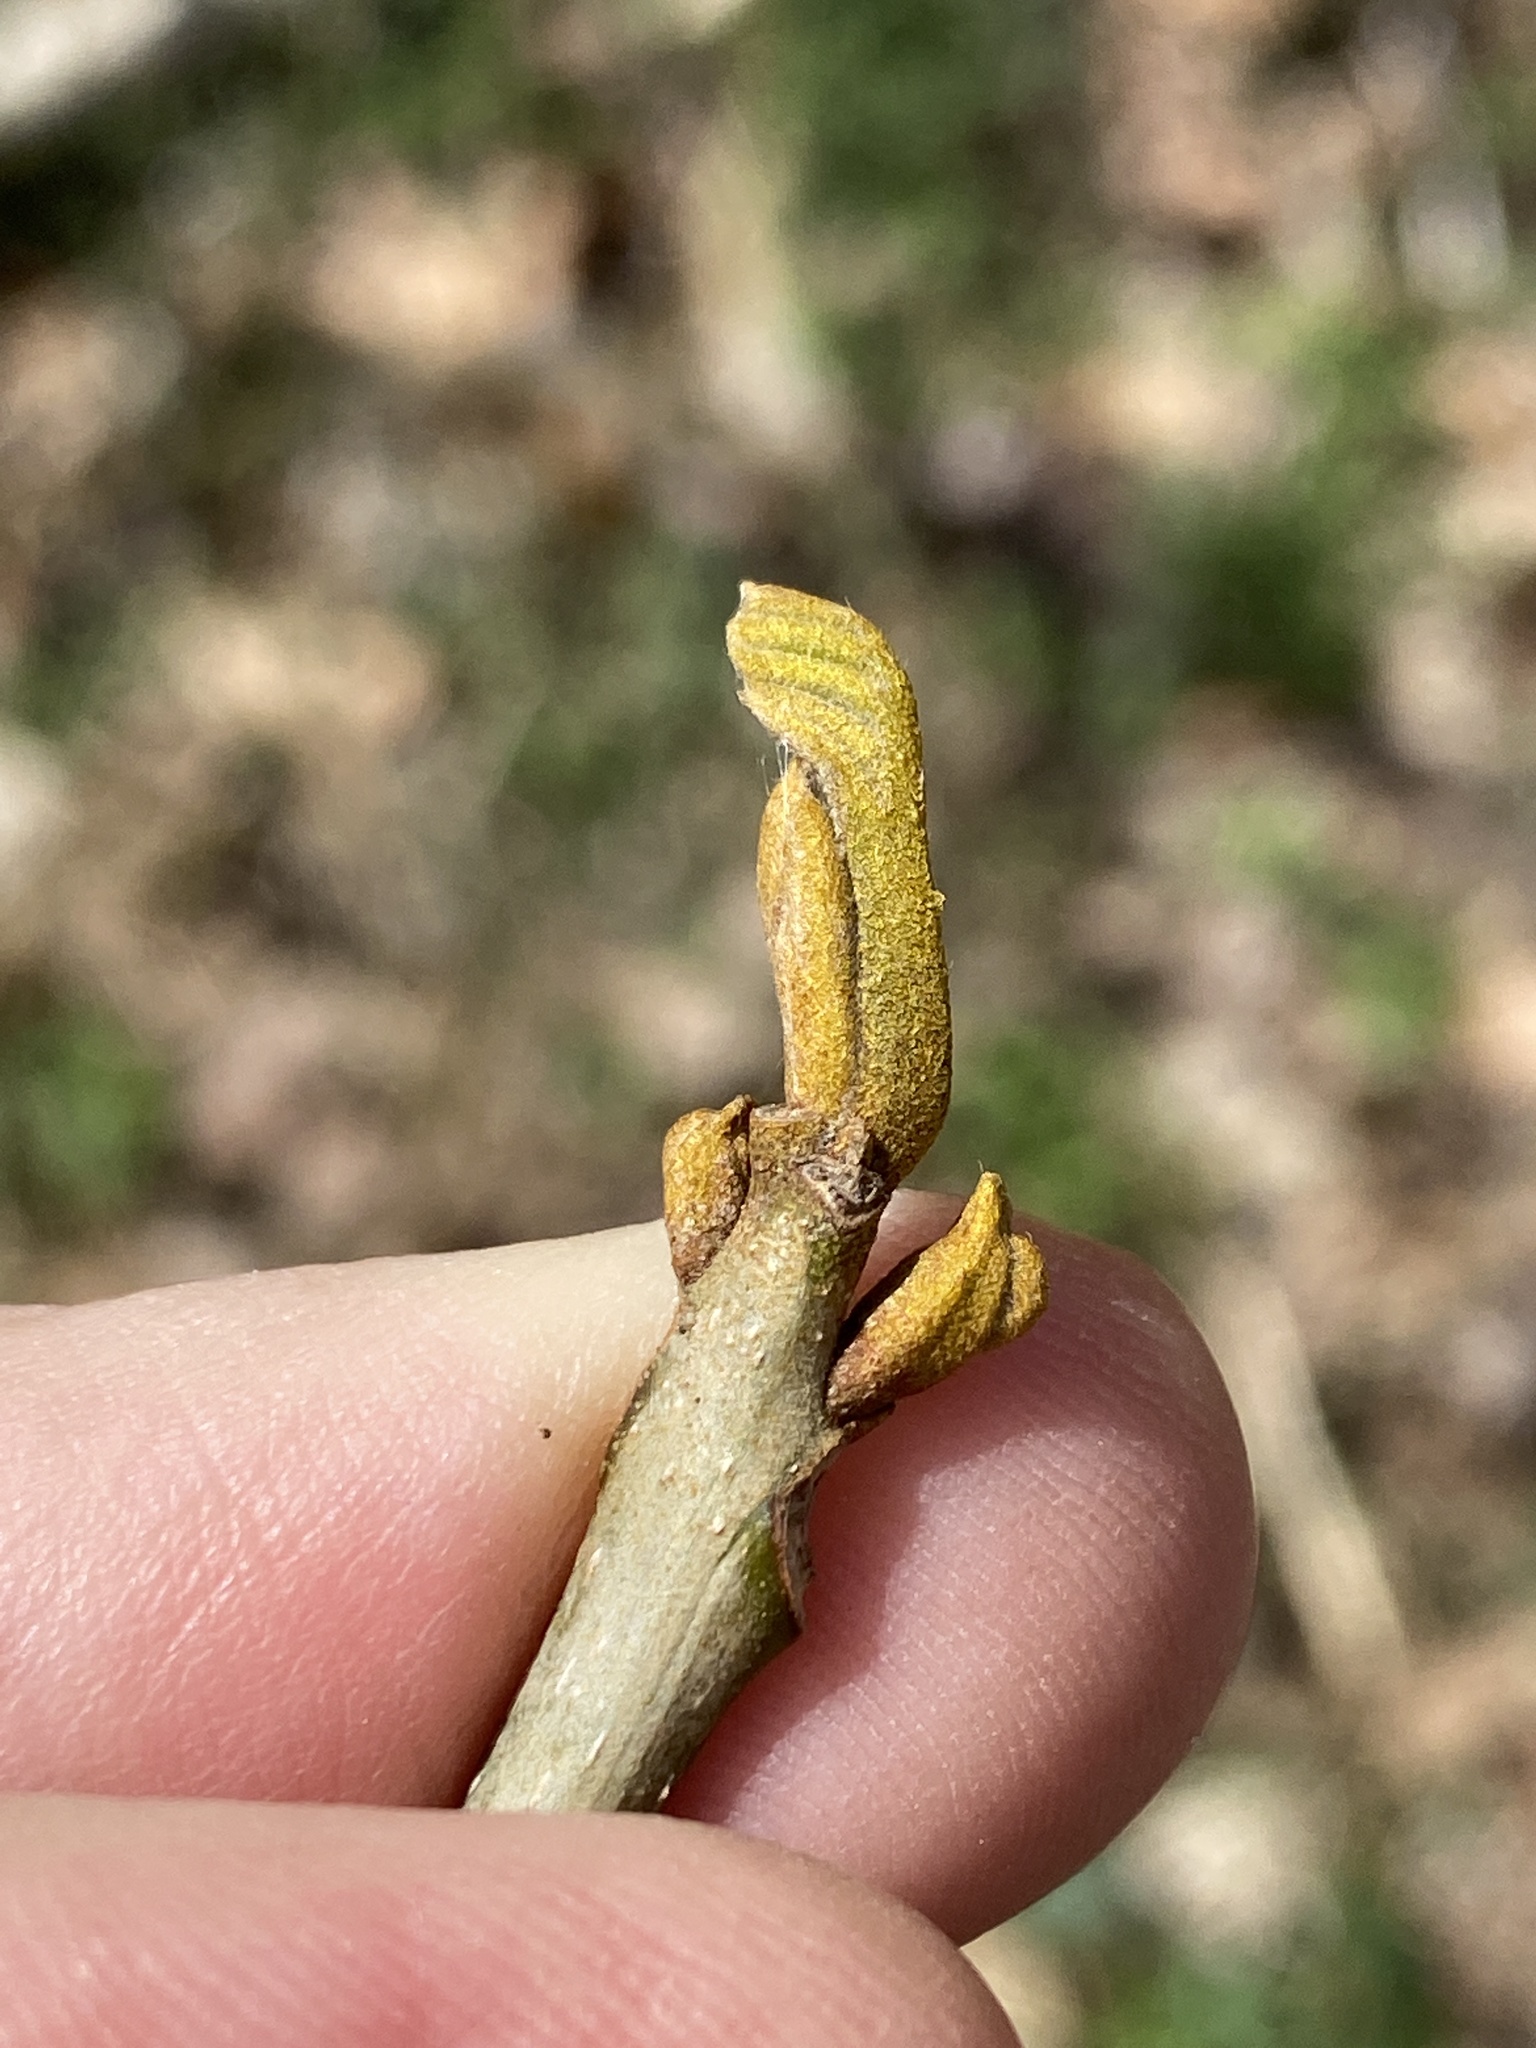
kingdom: Plantae
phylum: Tracheophyta
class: Magnoliopsida
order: Fagales
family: Juglandaceae
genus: Carya
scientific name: Carya cordiformis
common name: Bitternut hickory
